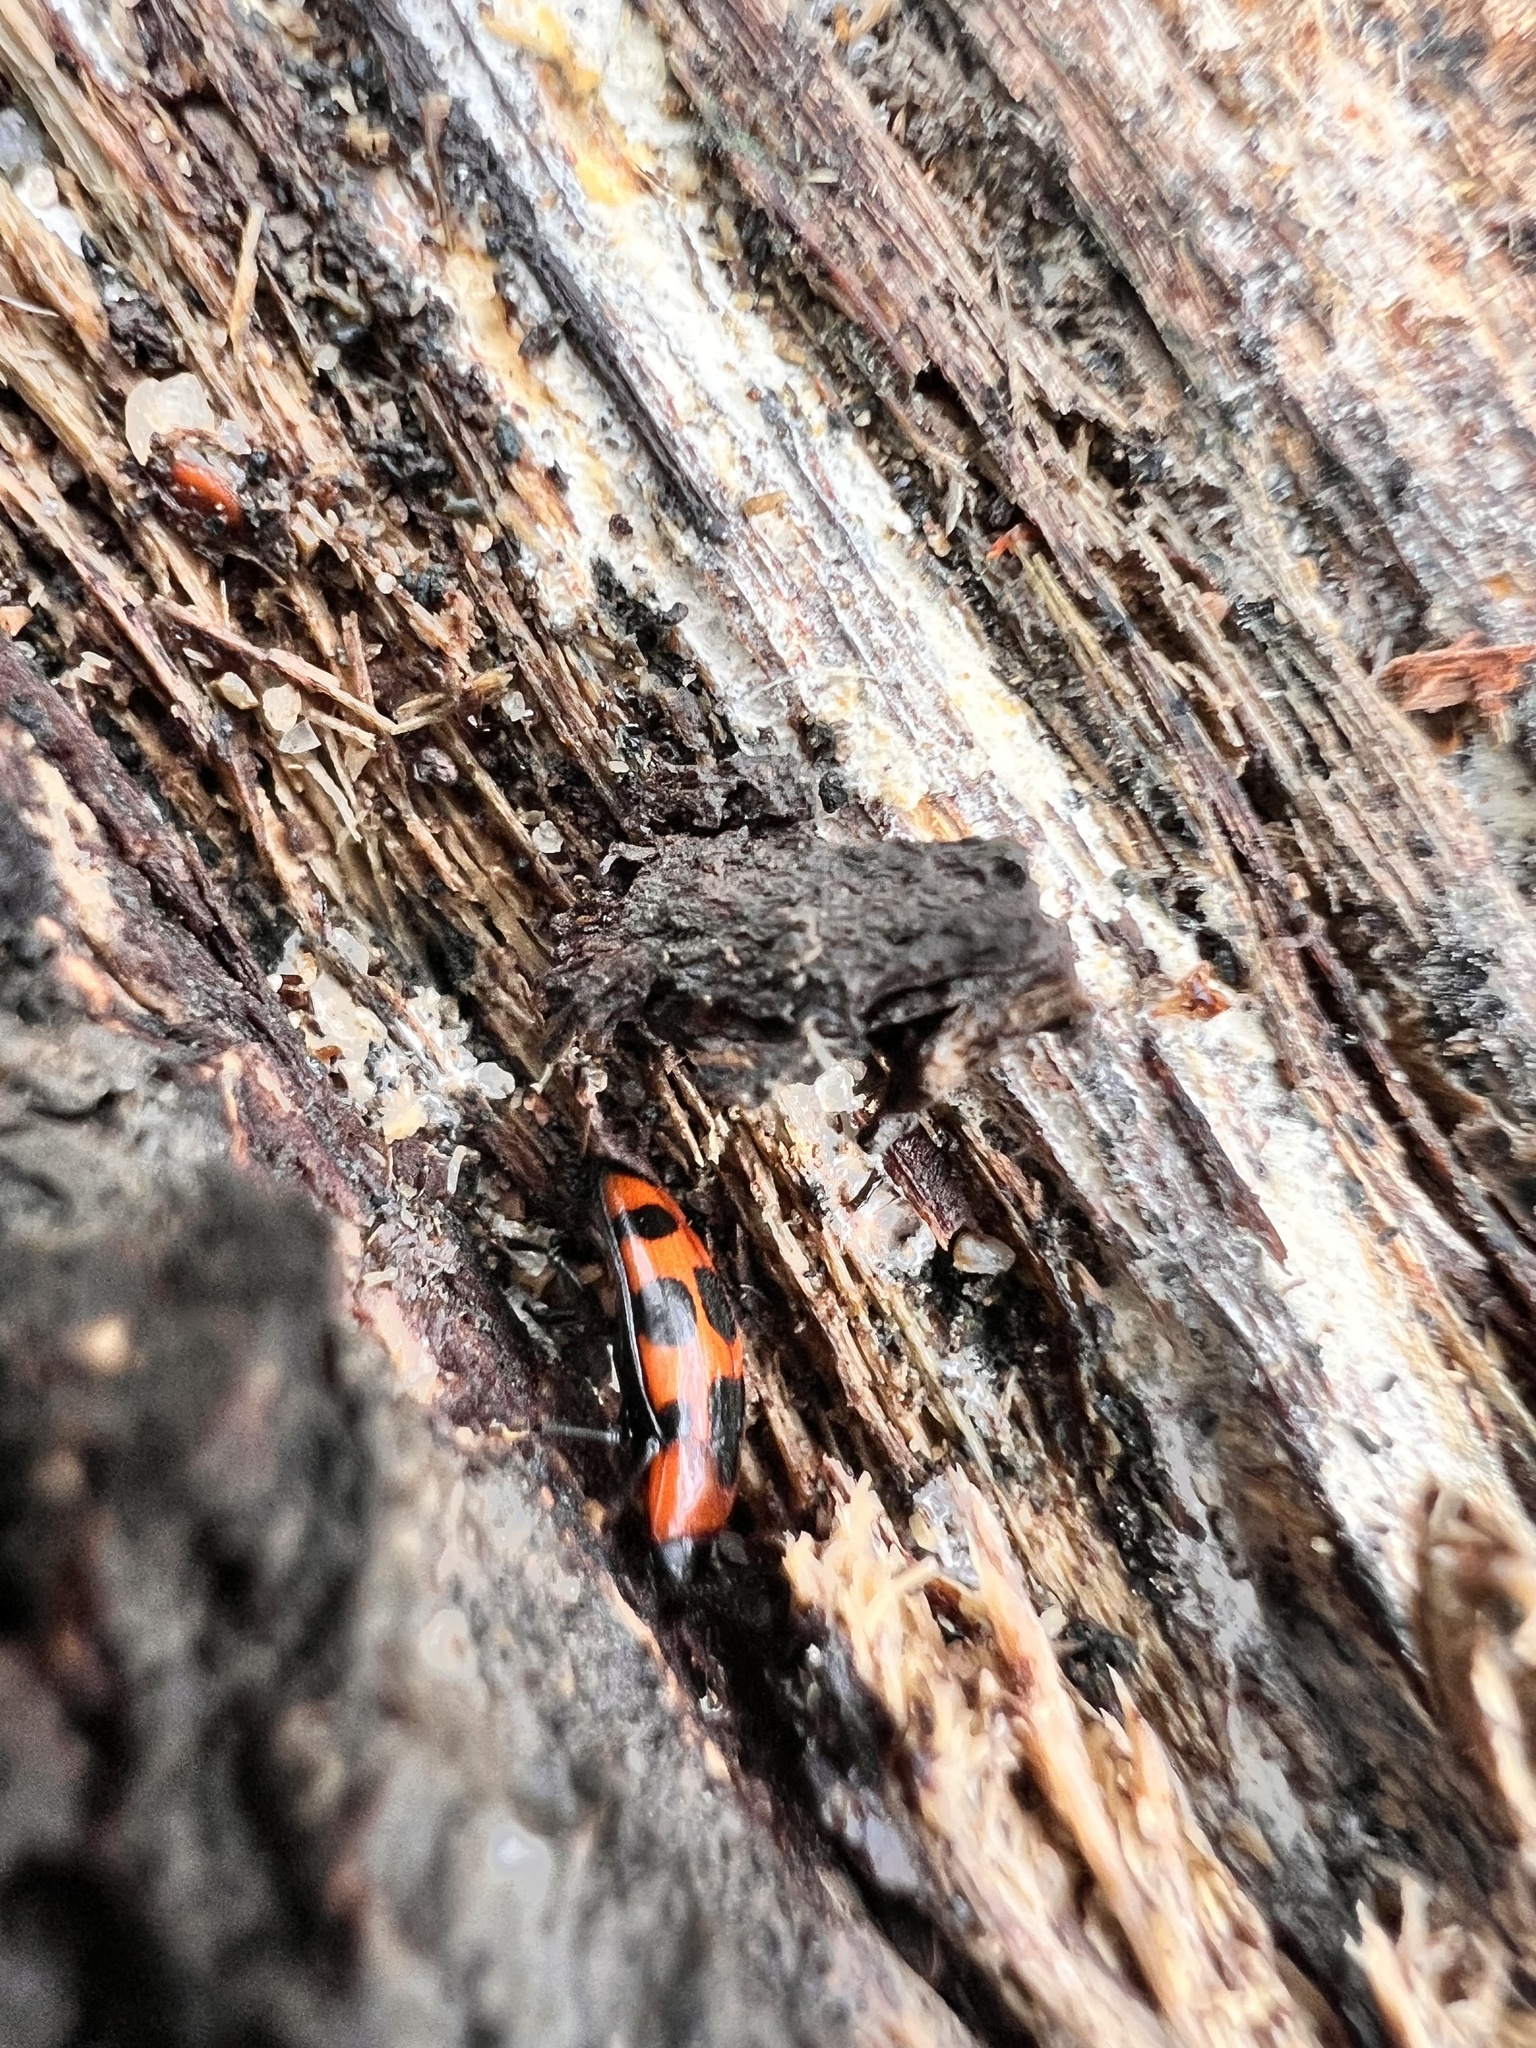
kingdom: Animalia
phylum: Arthropoda
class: Insecta
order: Coleoptera
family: Erotylidae
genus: Episcaphula
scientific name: Episcaphula australis
